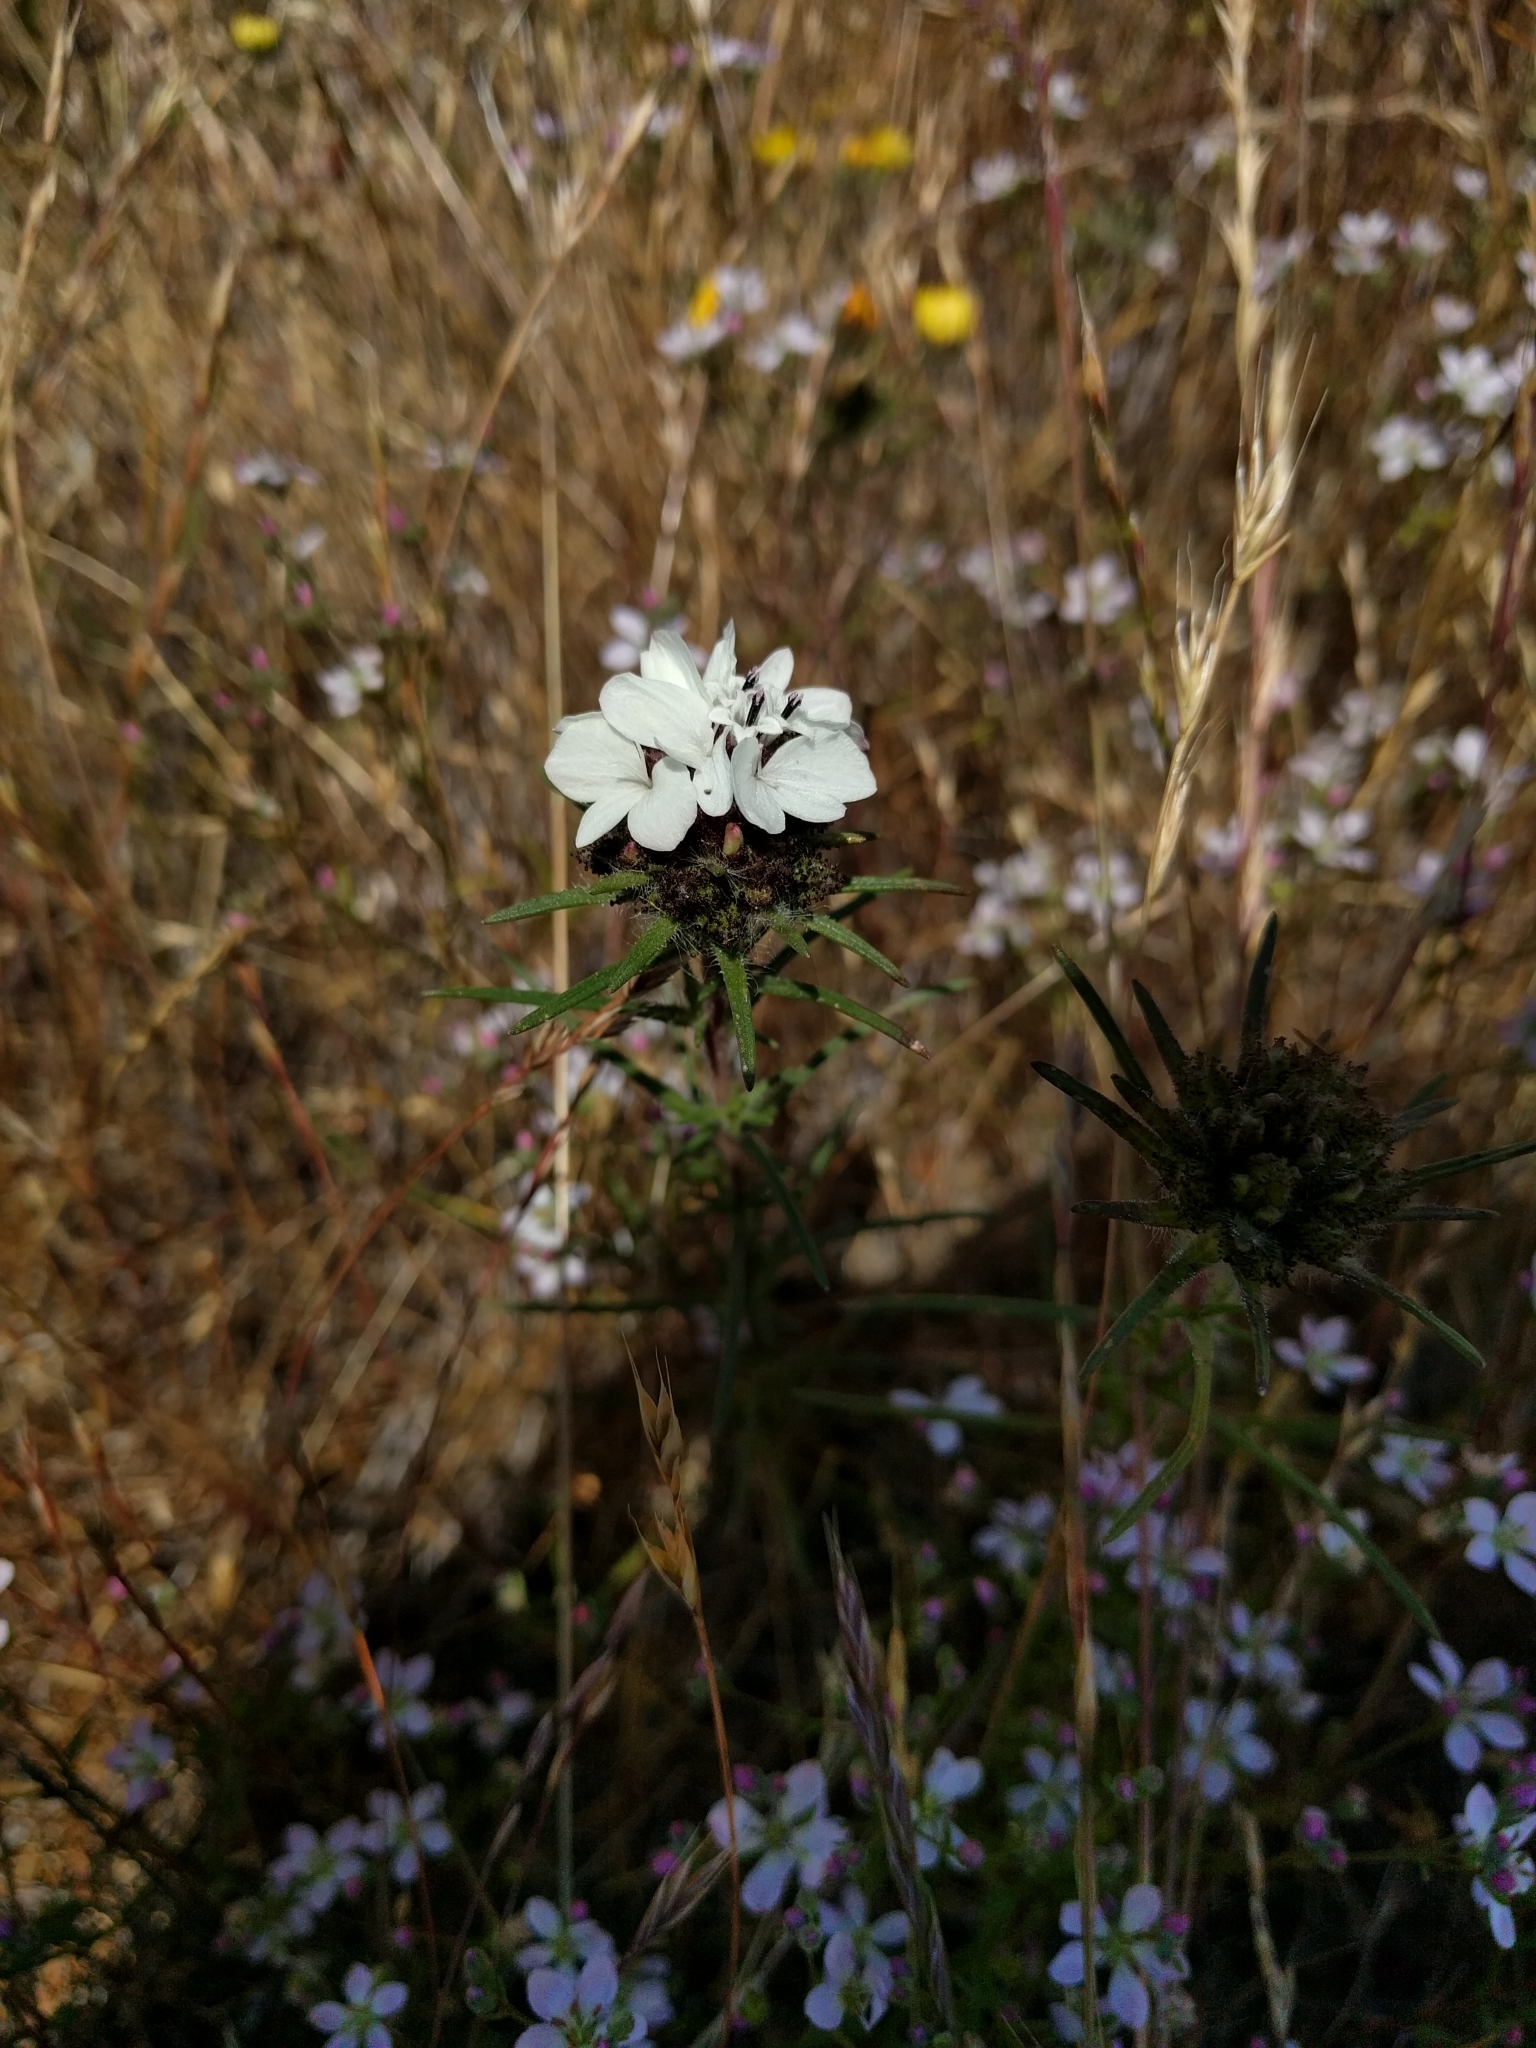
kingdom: Plantae
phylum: Tracheophyta
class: Magnoliopsida
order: Asterales
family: Asteraceae
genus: Calycadenia
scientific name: Calycadenia multiglandulosa
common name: Sticky calycadenia
